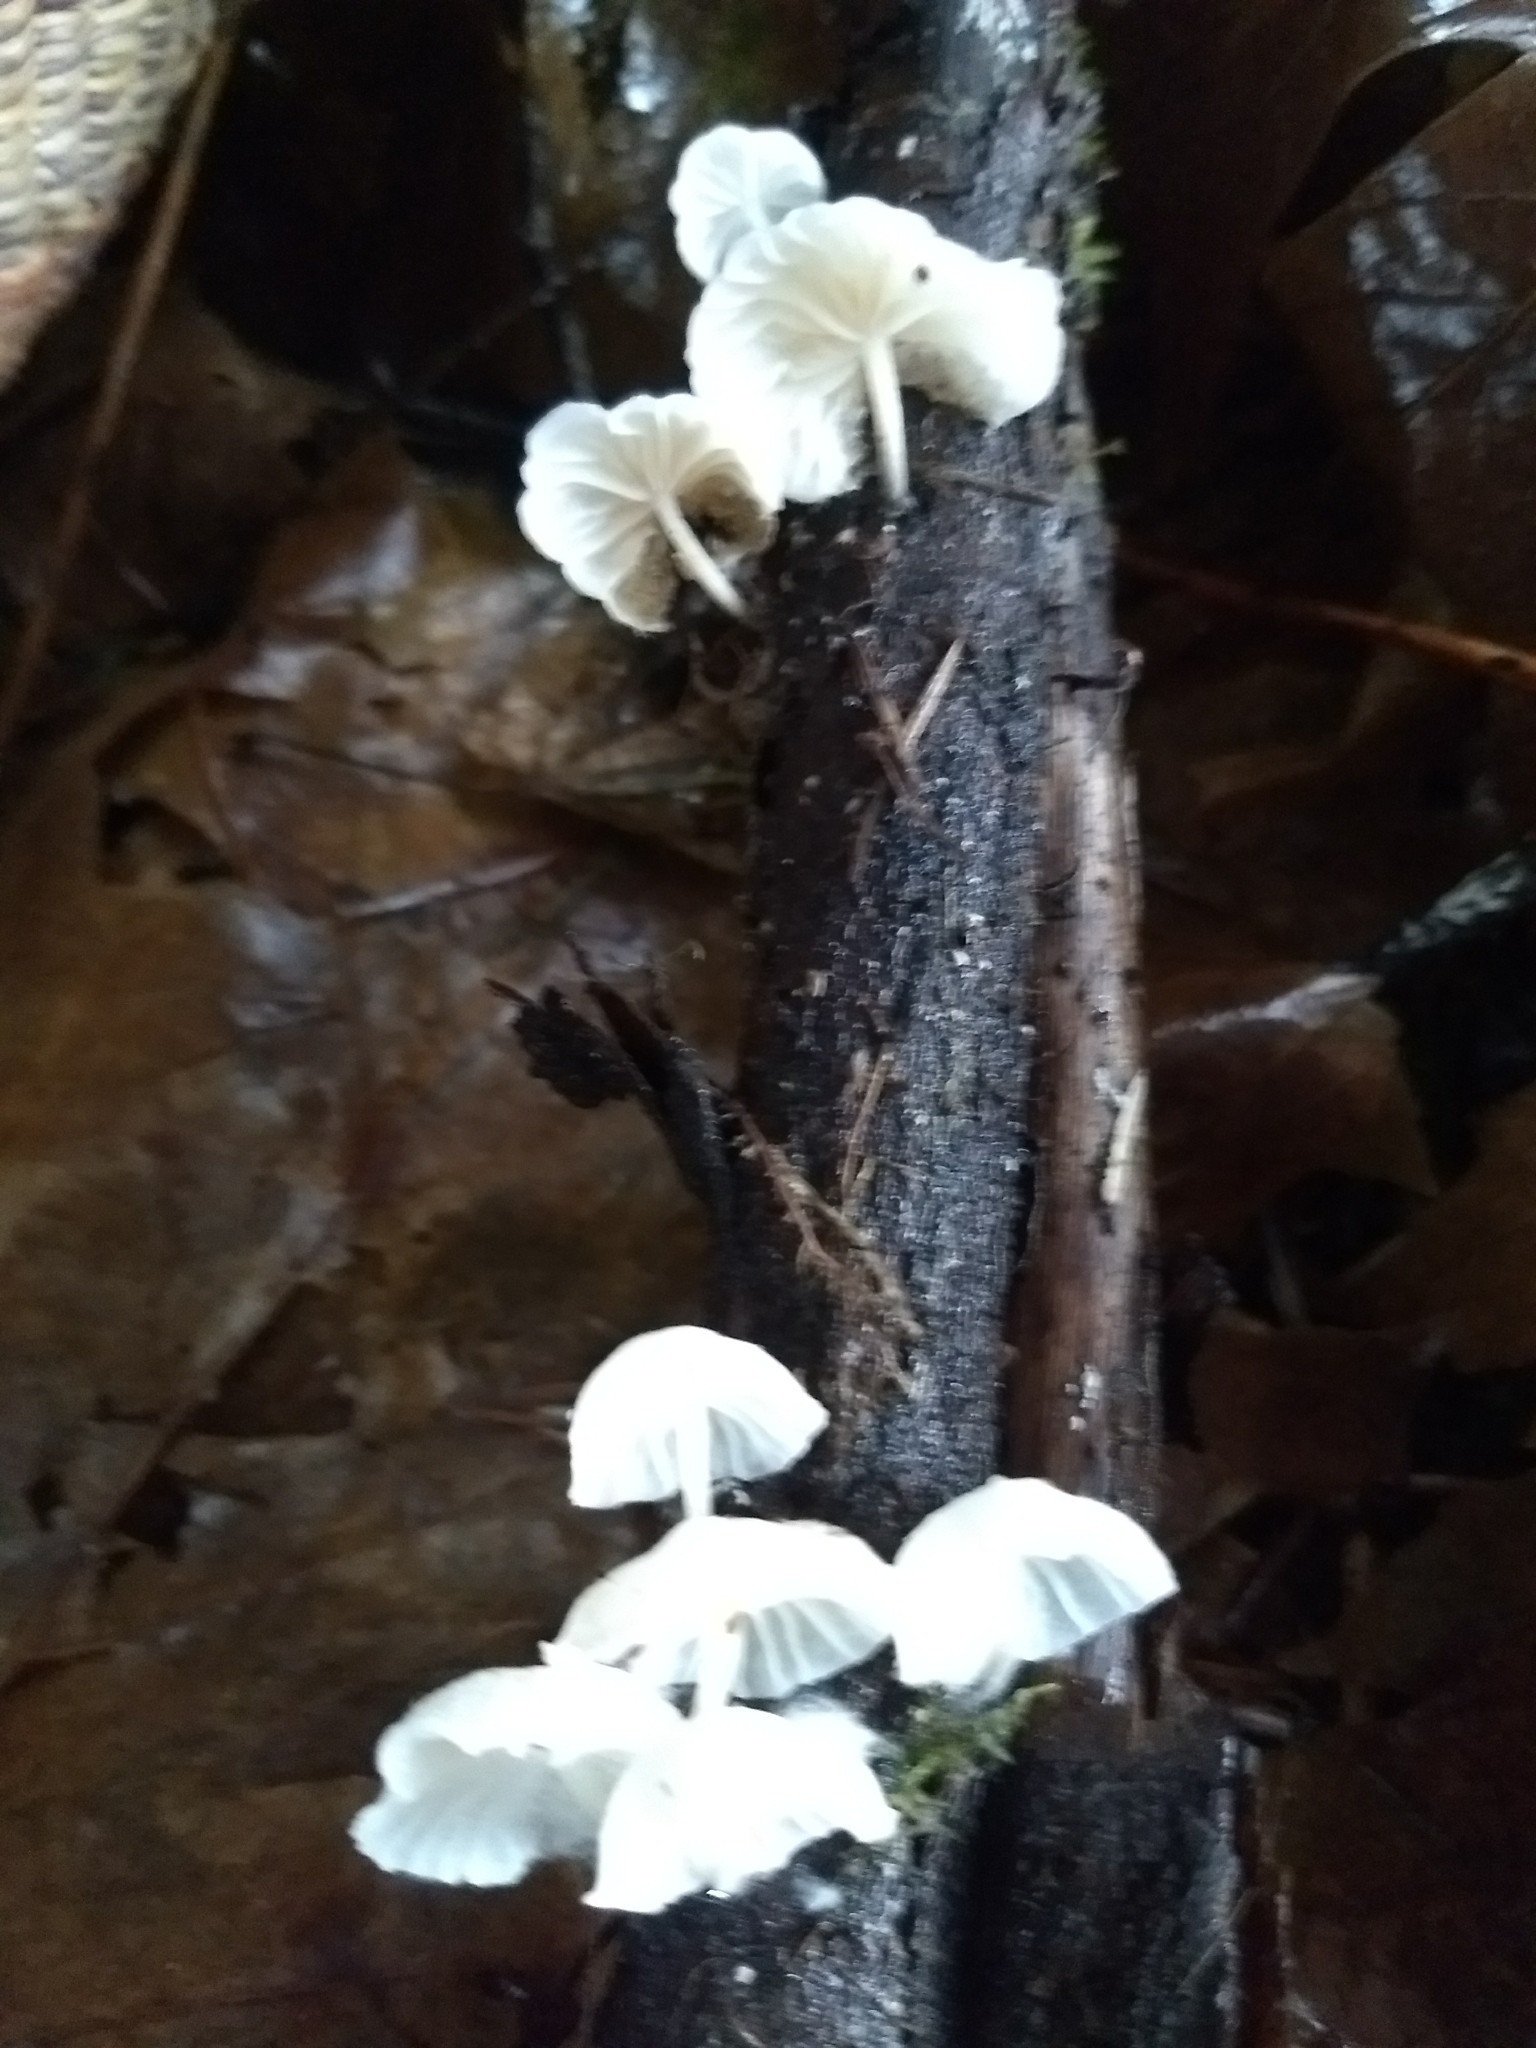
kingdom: Fungi
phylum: Basidiomycota
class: Agaricomycetes
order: Agaricales
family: Omphalotaceae
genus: Marasmiellus
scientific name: Marasmiellus candidus
